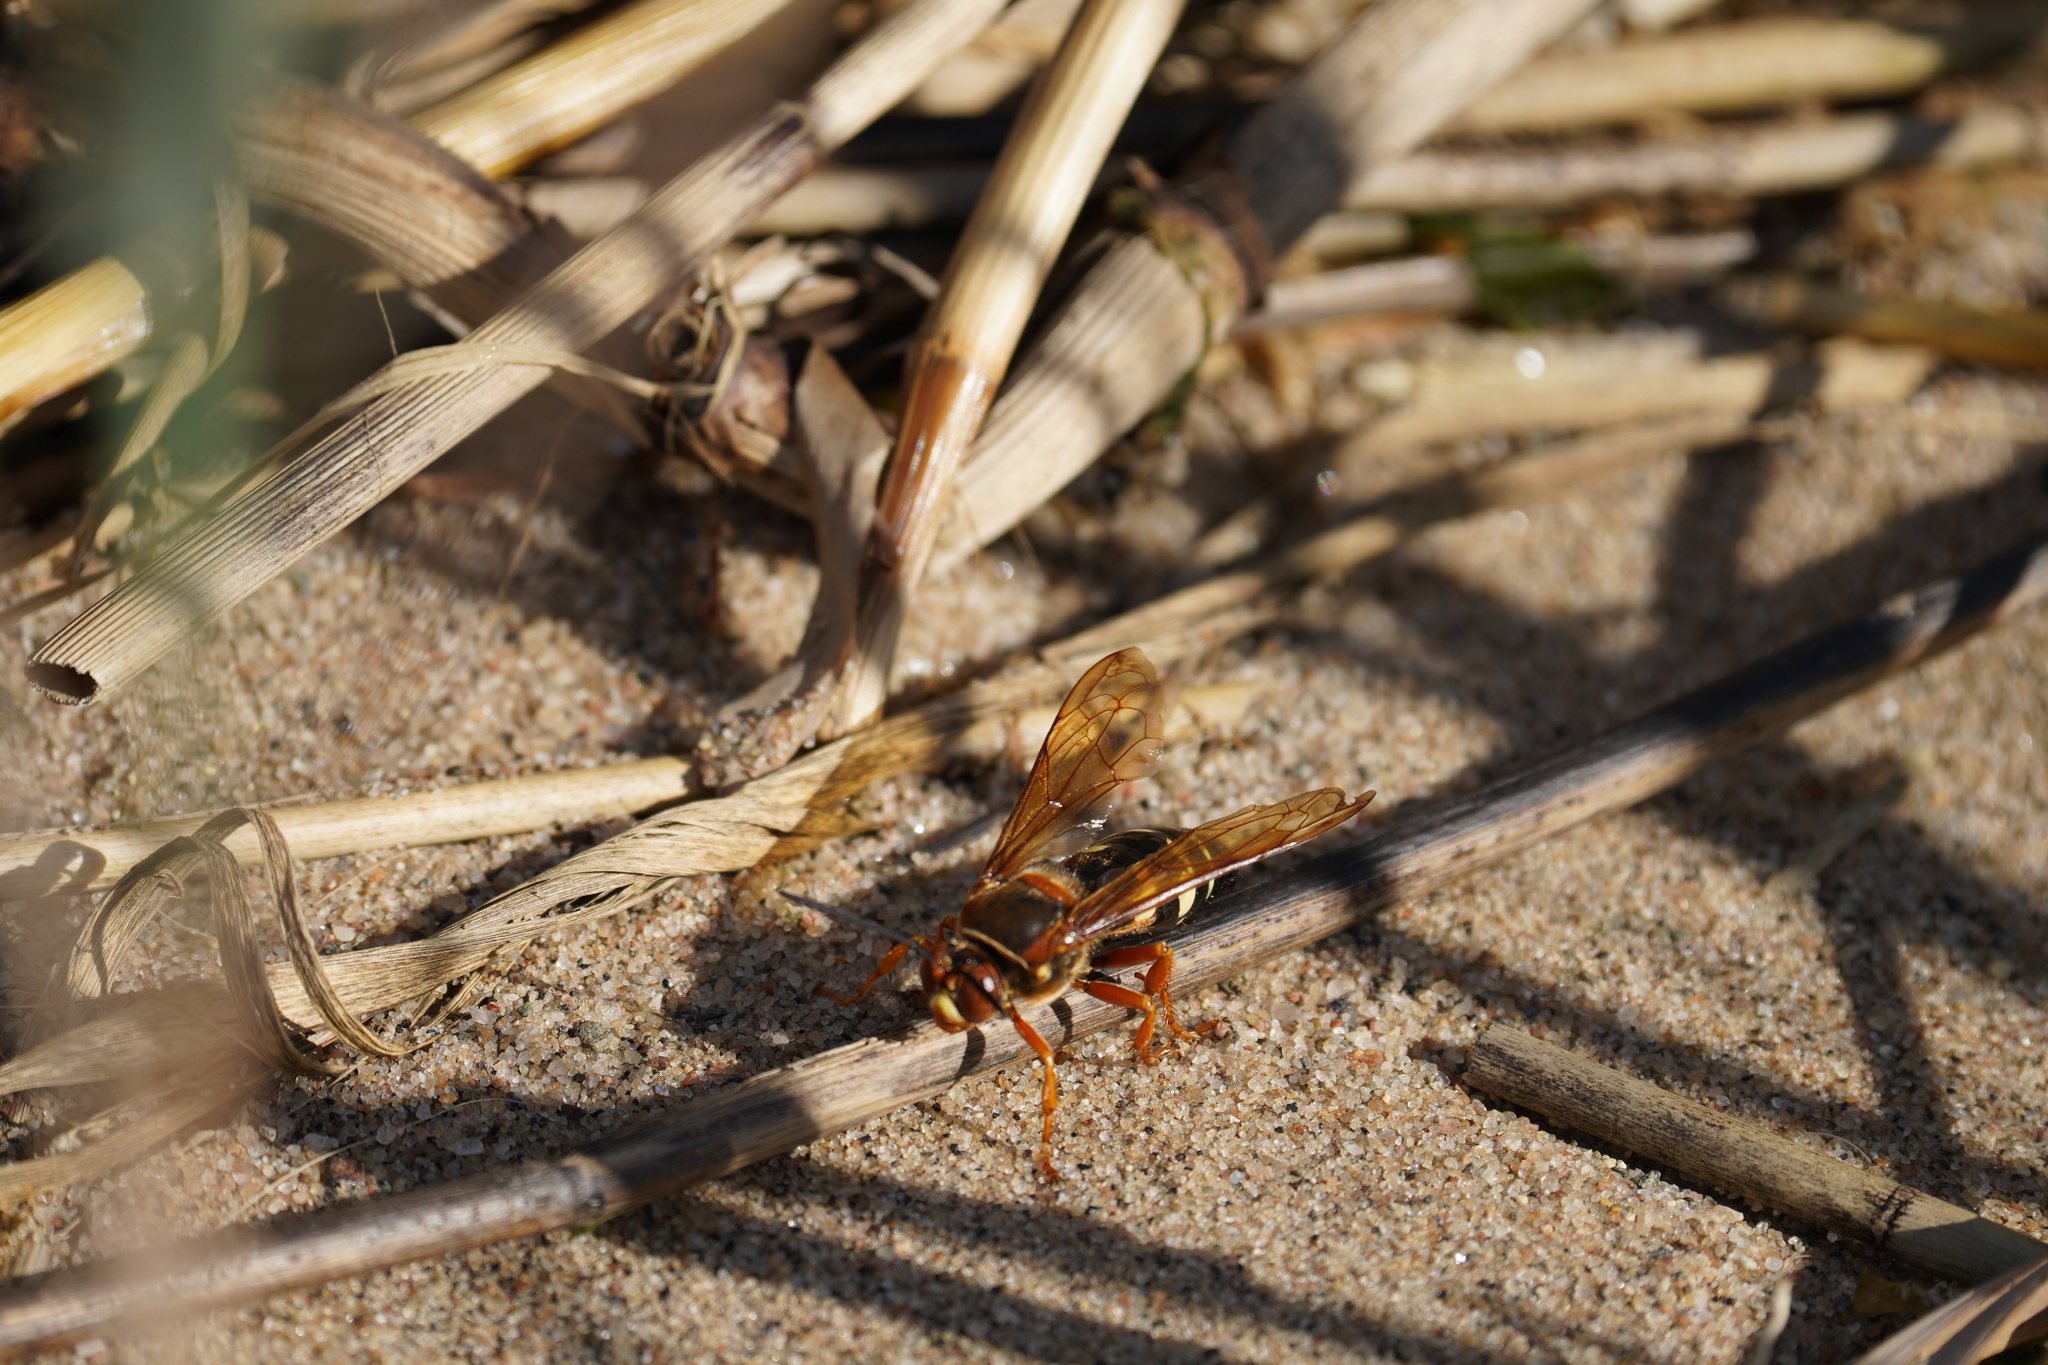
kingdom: Animalia
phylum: Arthropoda
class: Insecta
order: Hymenoptera
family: Crabronidae
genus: Sphecius
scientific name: Sphecius speciosus
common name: Cicada killer
